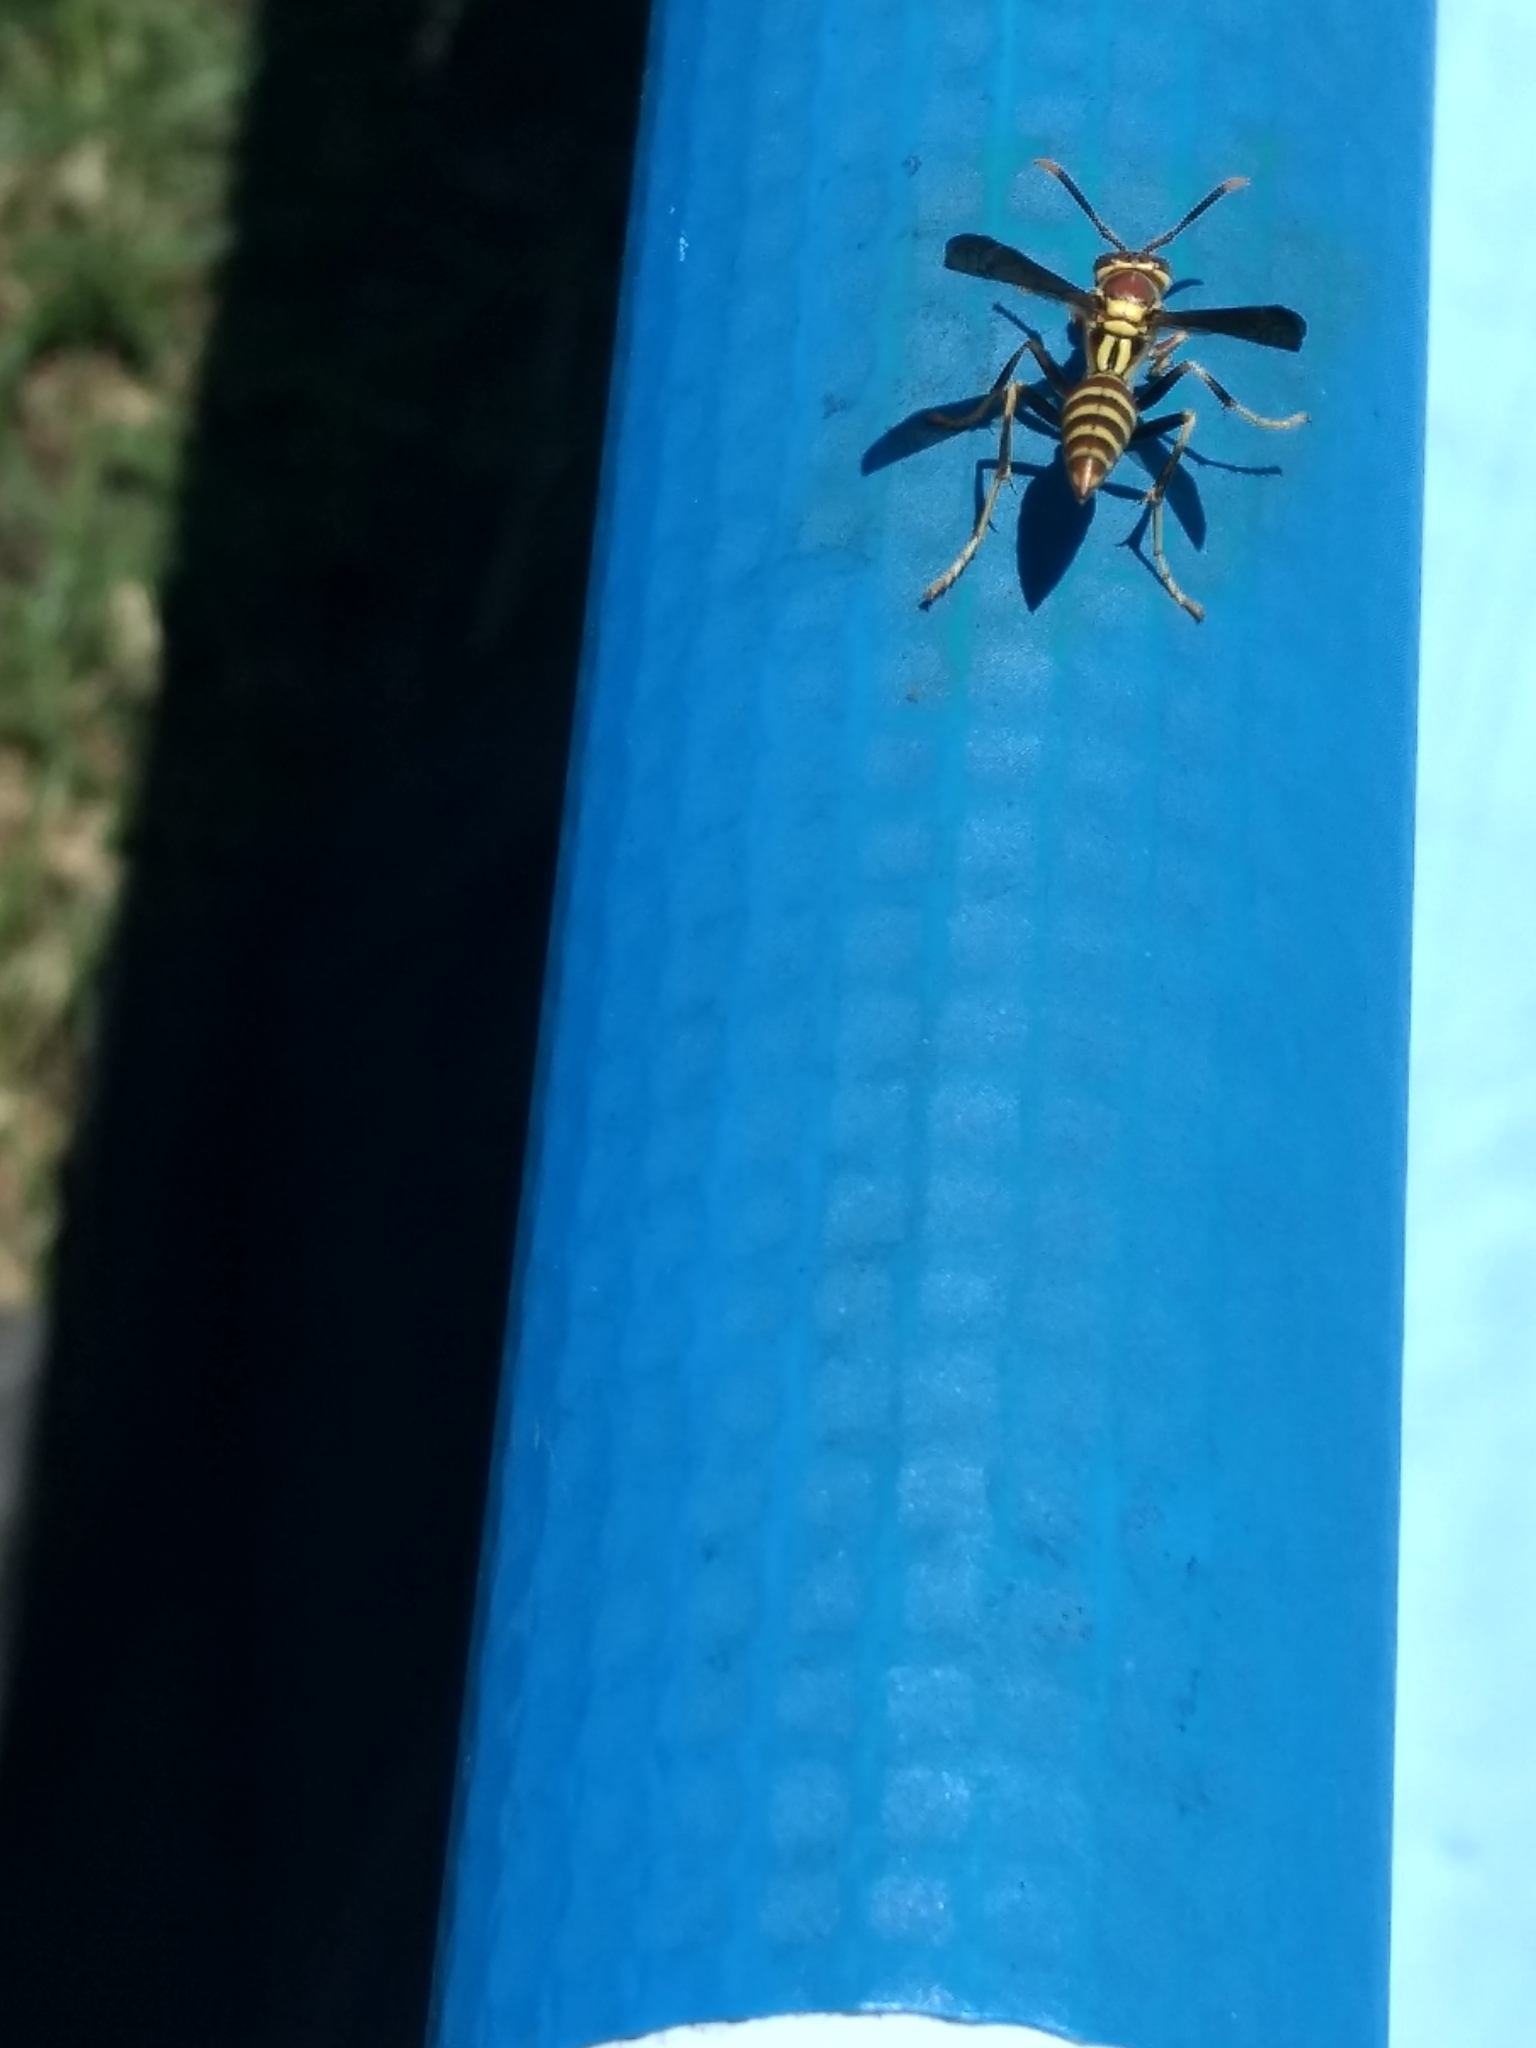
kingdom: Animalia
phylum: Arthropoda
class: Insecta
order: Hymenoptera
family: Eumenidae
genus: Polistes
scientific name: Polistes exclamans
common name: Paper wasp
